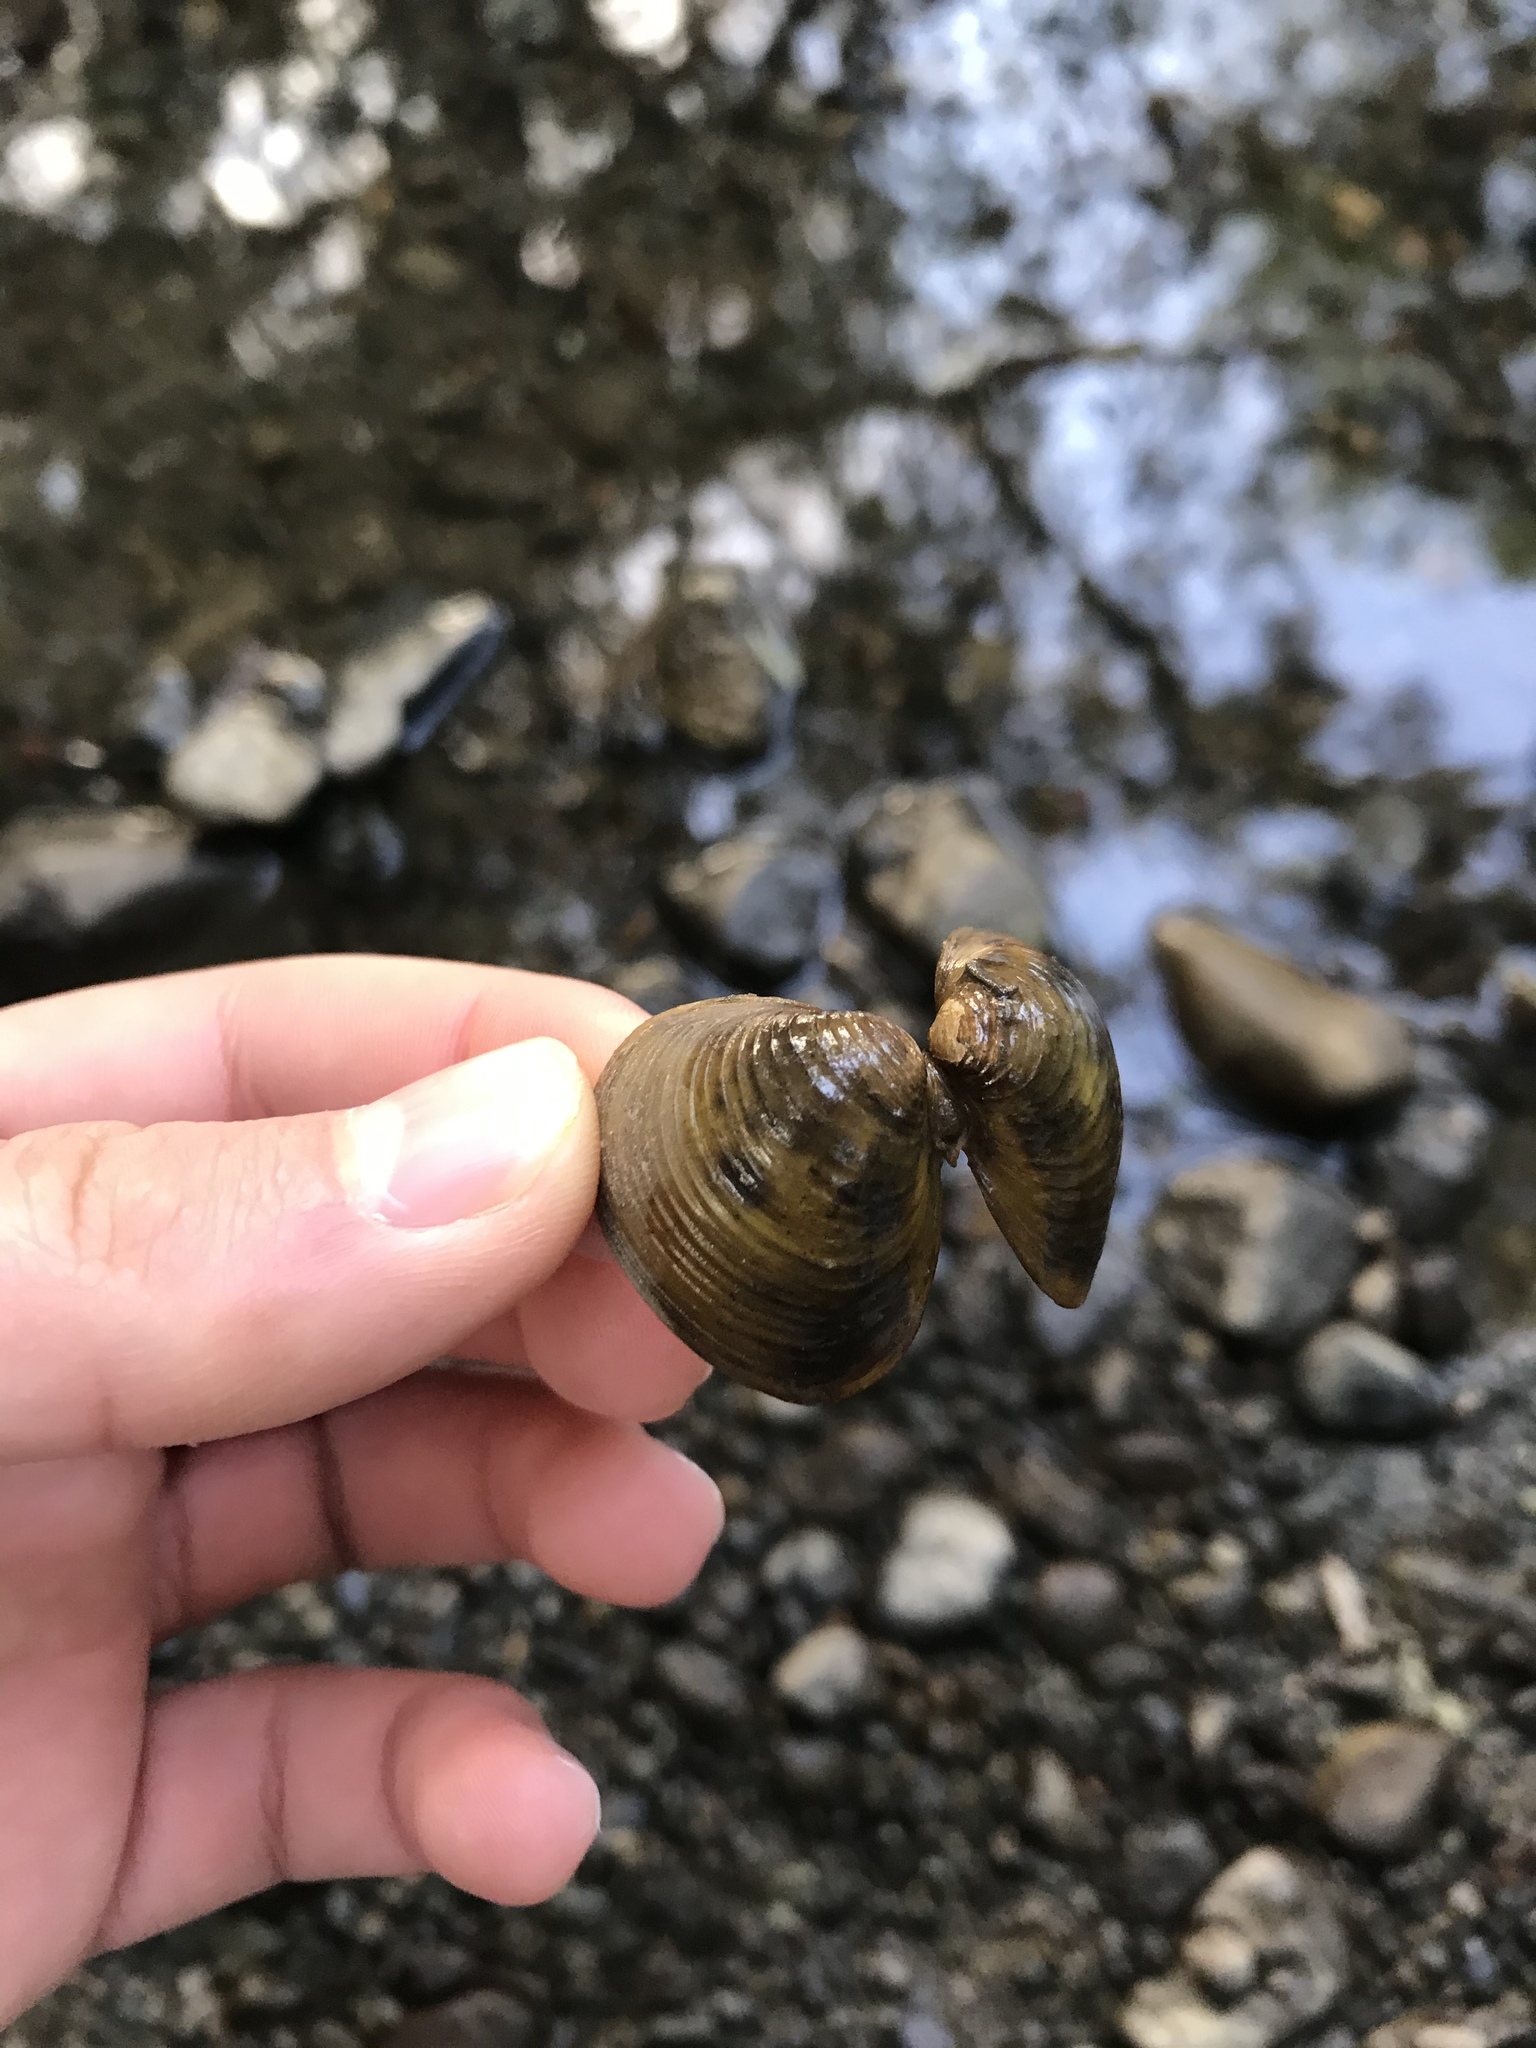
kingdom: Animalia
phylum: Mollusca
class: Bivalvia
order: Venerida
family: Cyrenidae
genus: Corbicula
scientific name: Corbicula fluminea
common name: Asian clam
